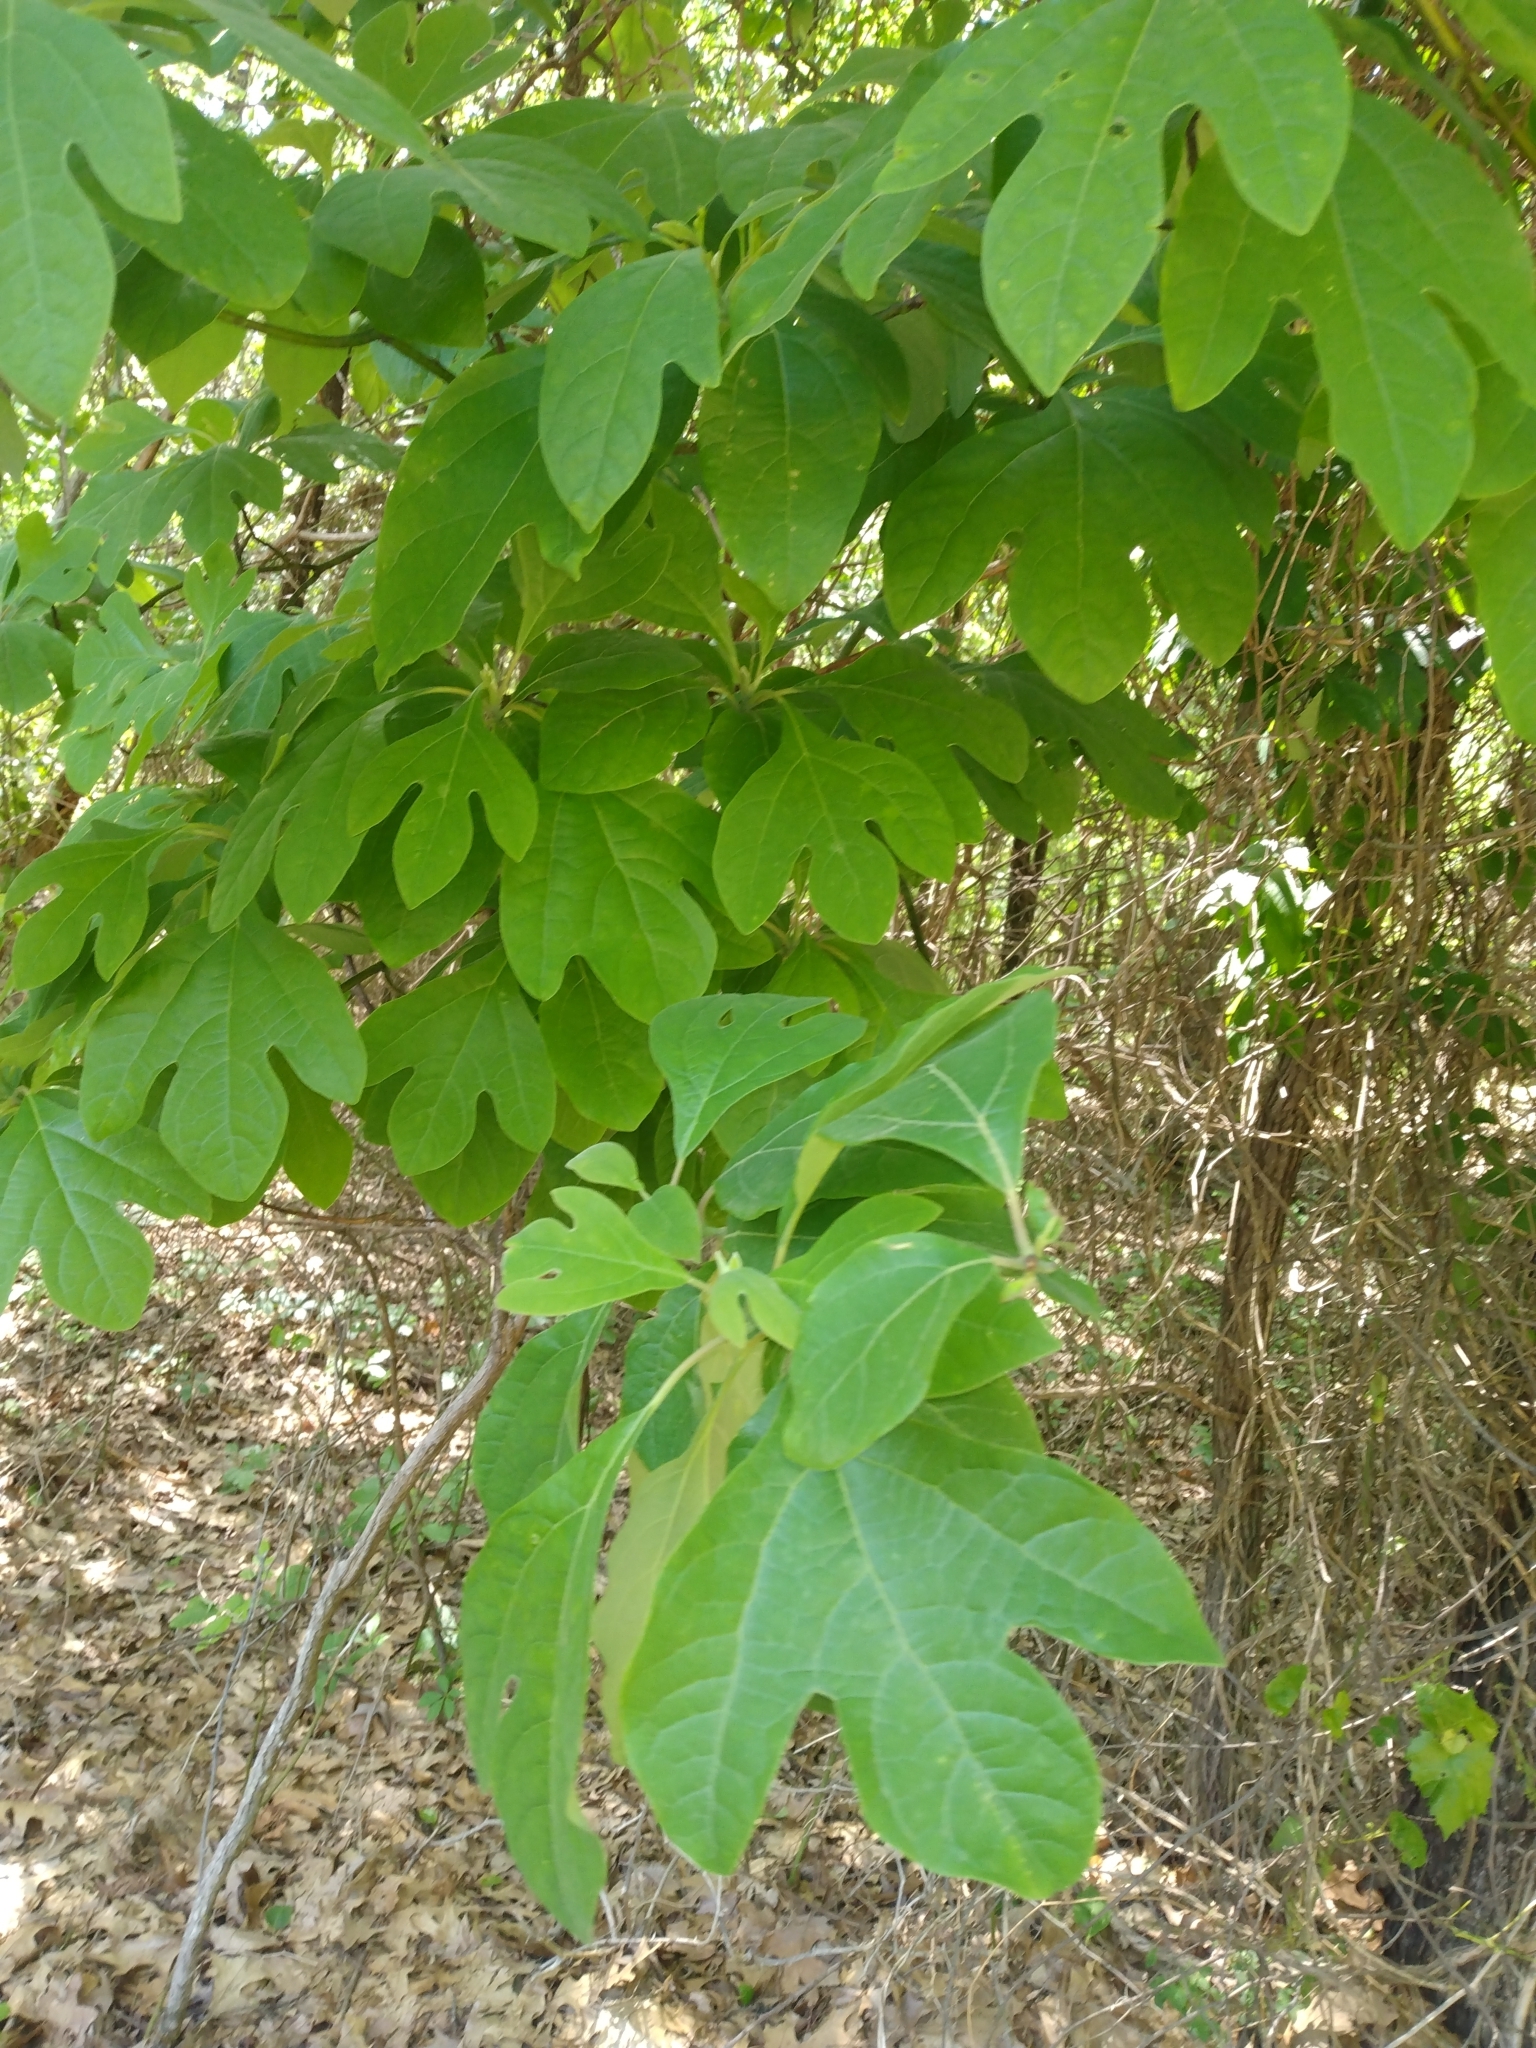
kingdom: Plantae
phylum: Tracheophyta
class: Magnoliopsida
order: Laurales
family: Lauraceae
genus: Sassafras
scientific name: Sassafras albidum
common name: Sassafras
